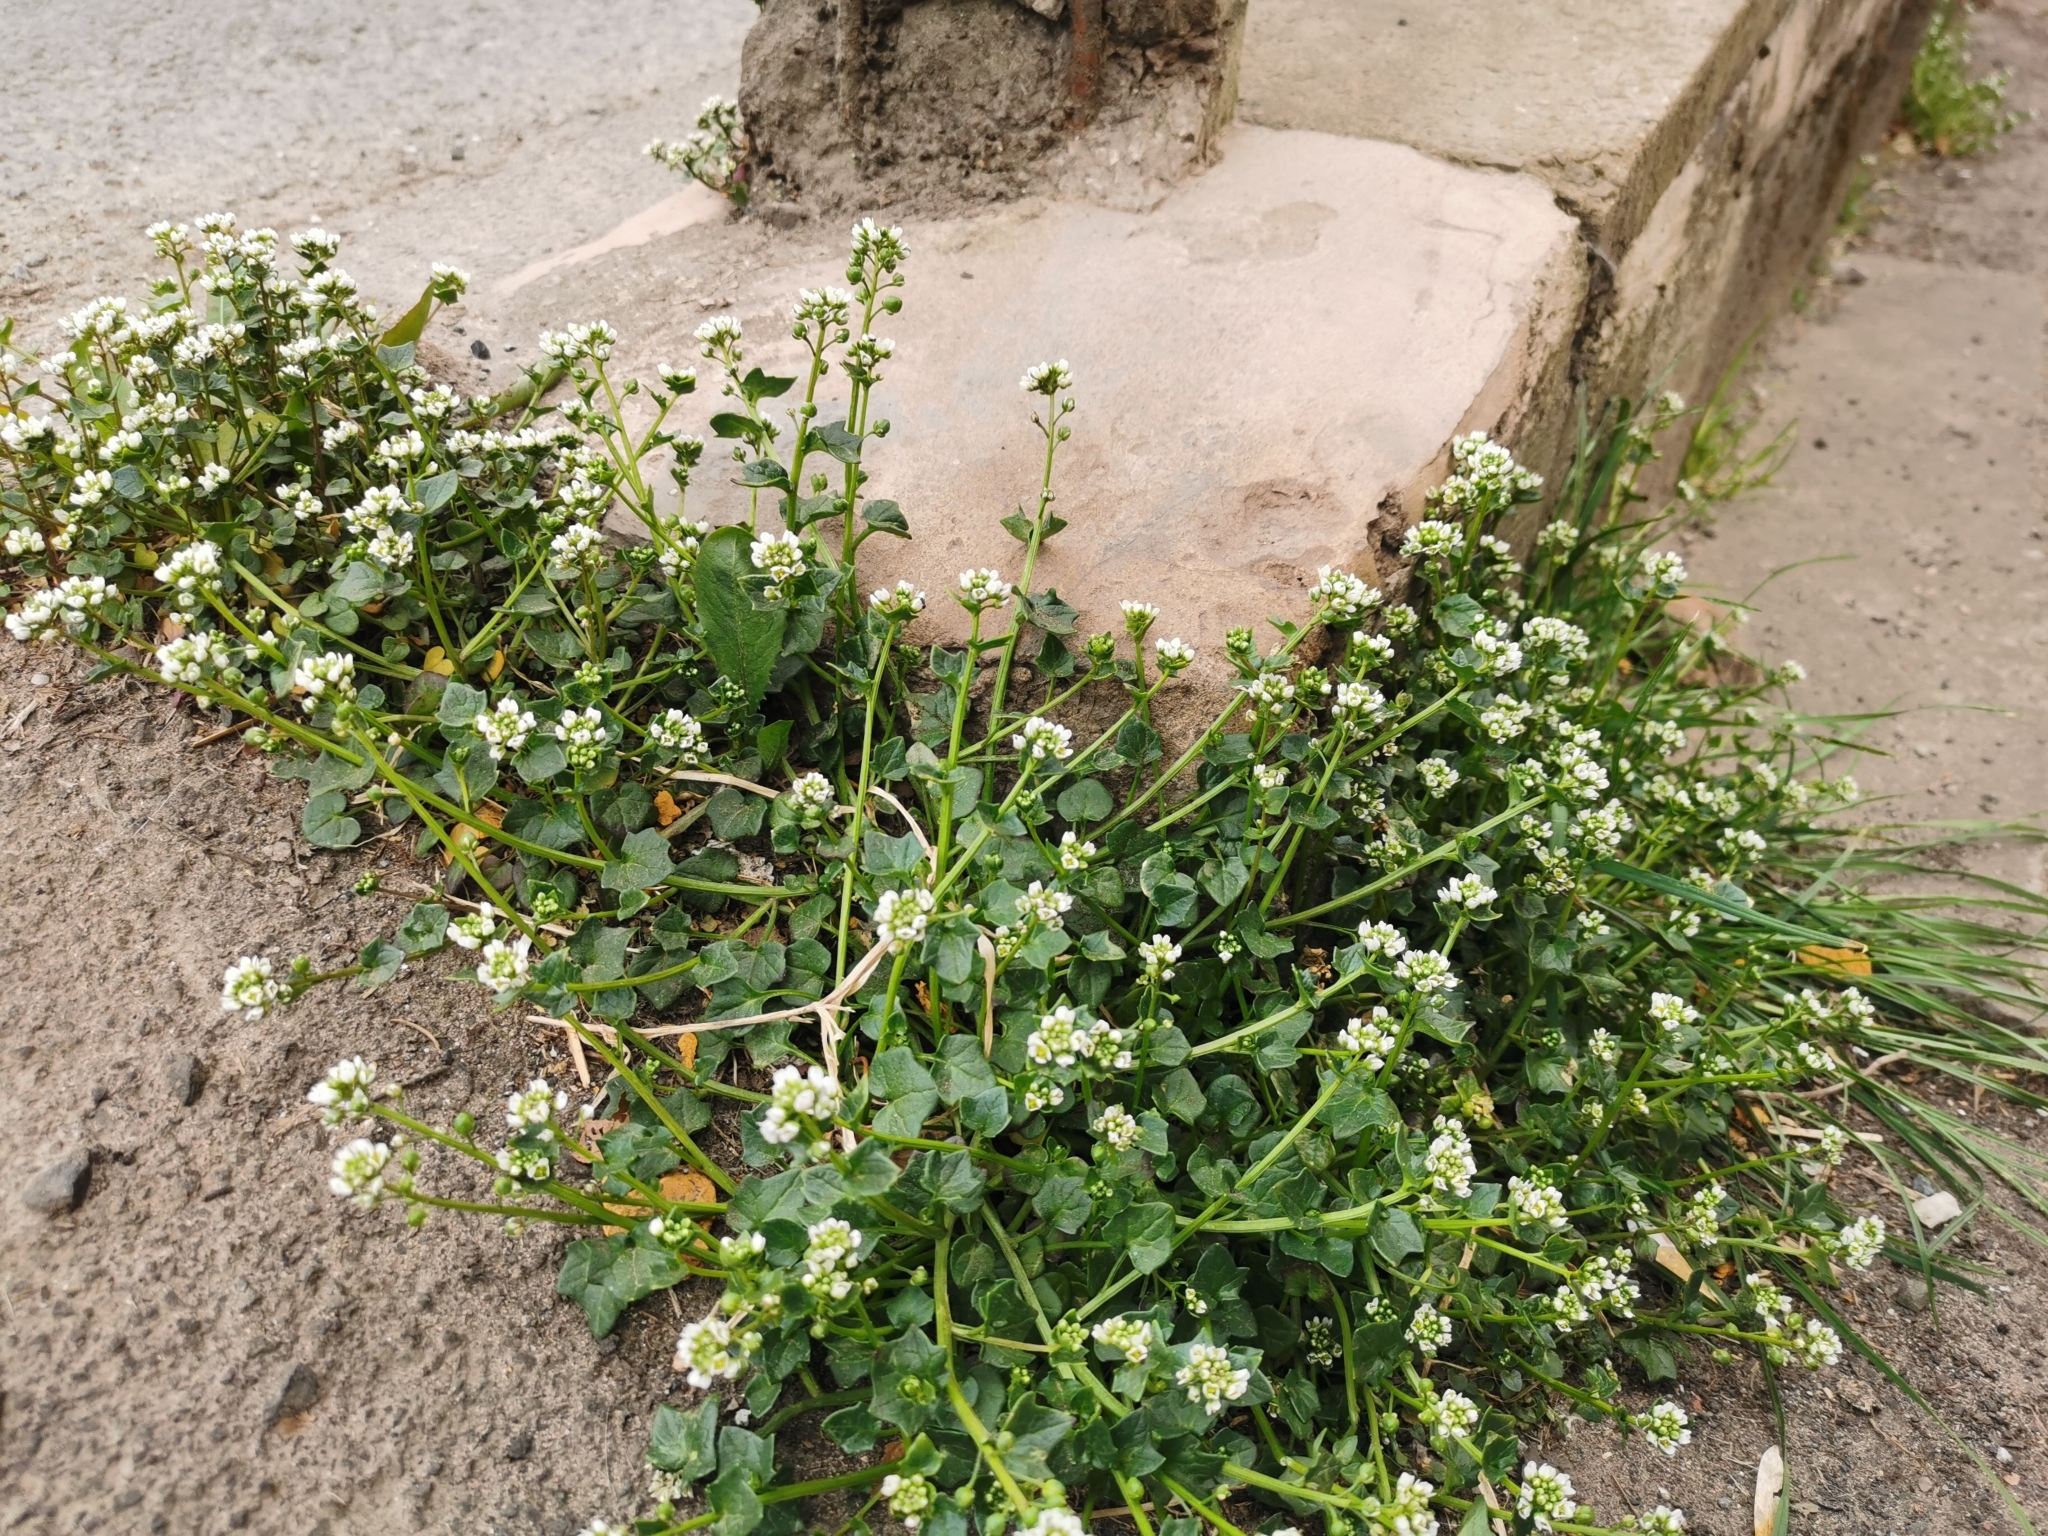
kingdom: Plantae
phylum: Tracheophyta
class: Magnoliopsida
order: Brassicales
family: Brassicaceae
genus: Cochlearia
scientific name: Cochlearia danica
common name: Early scurvygrass
